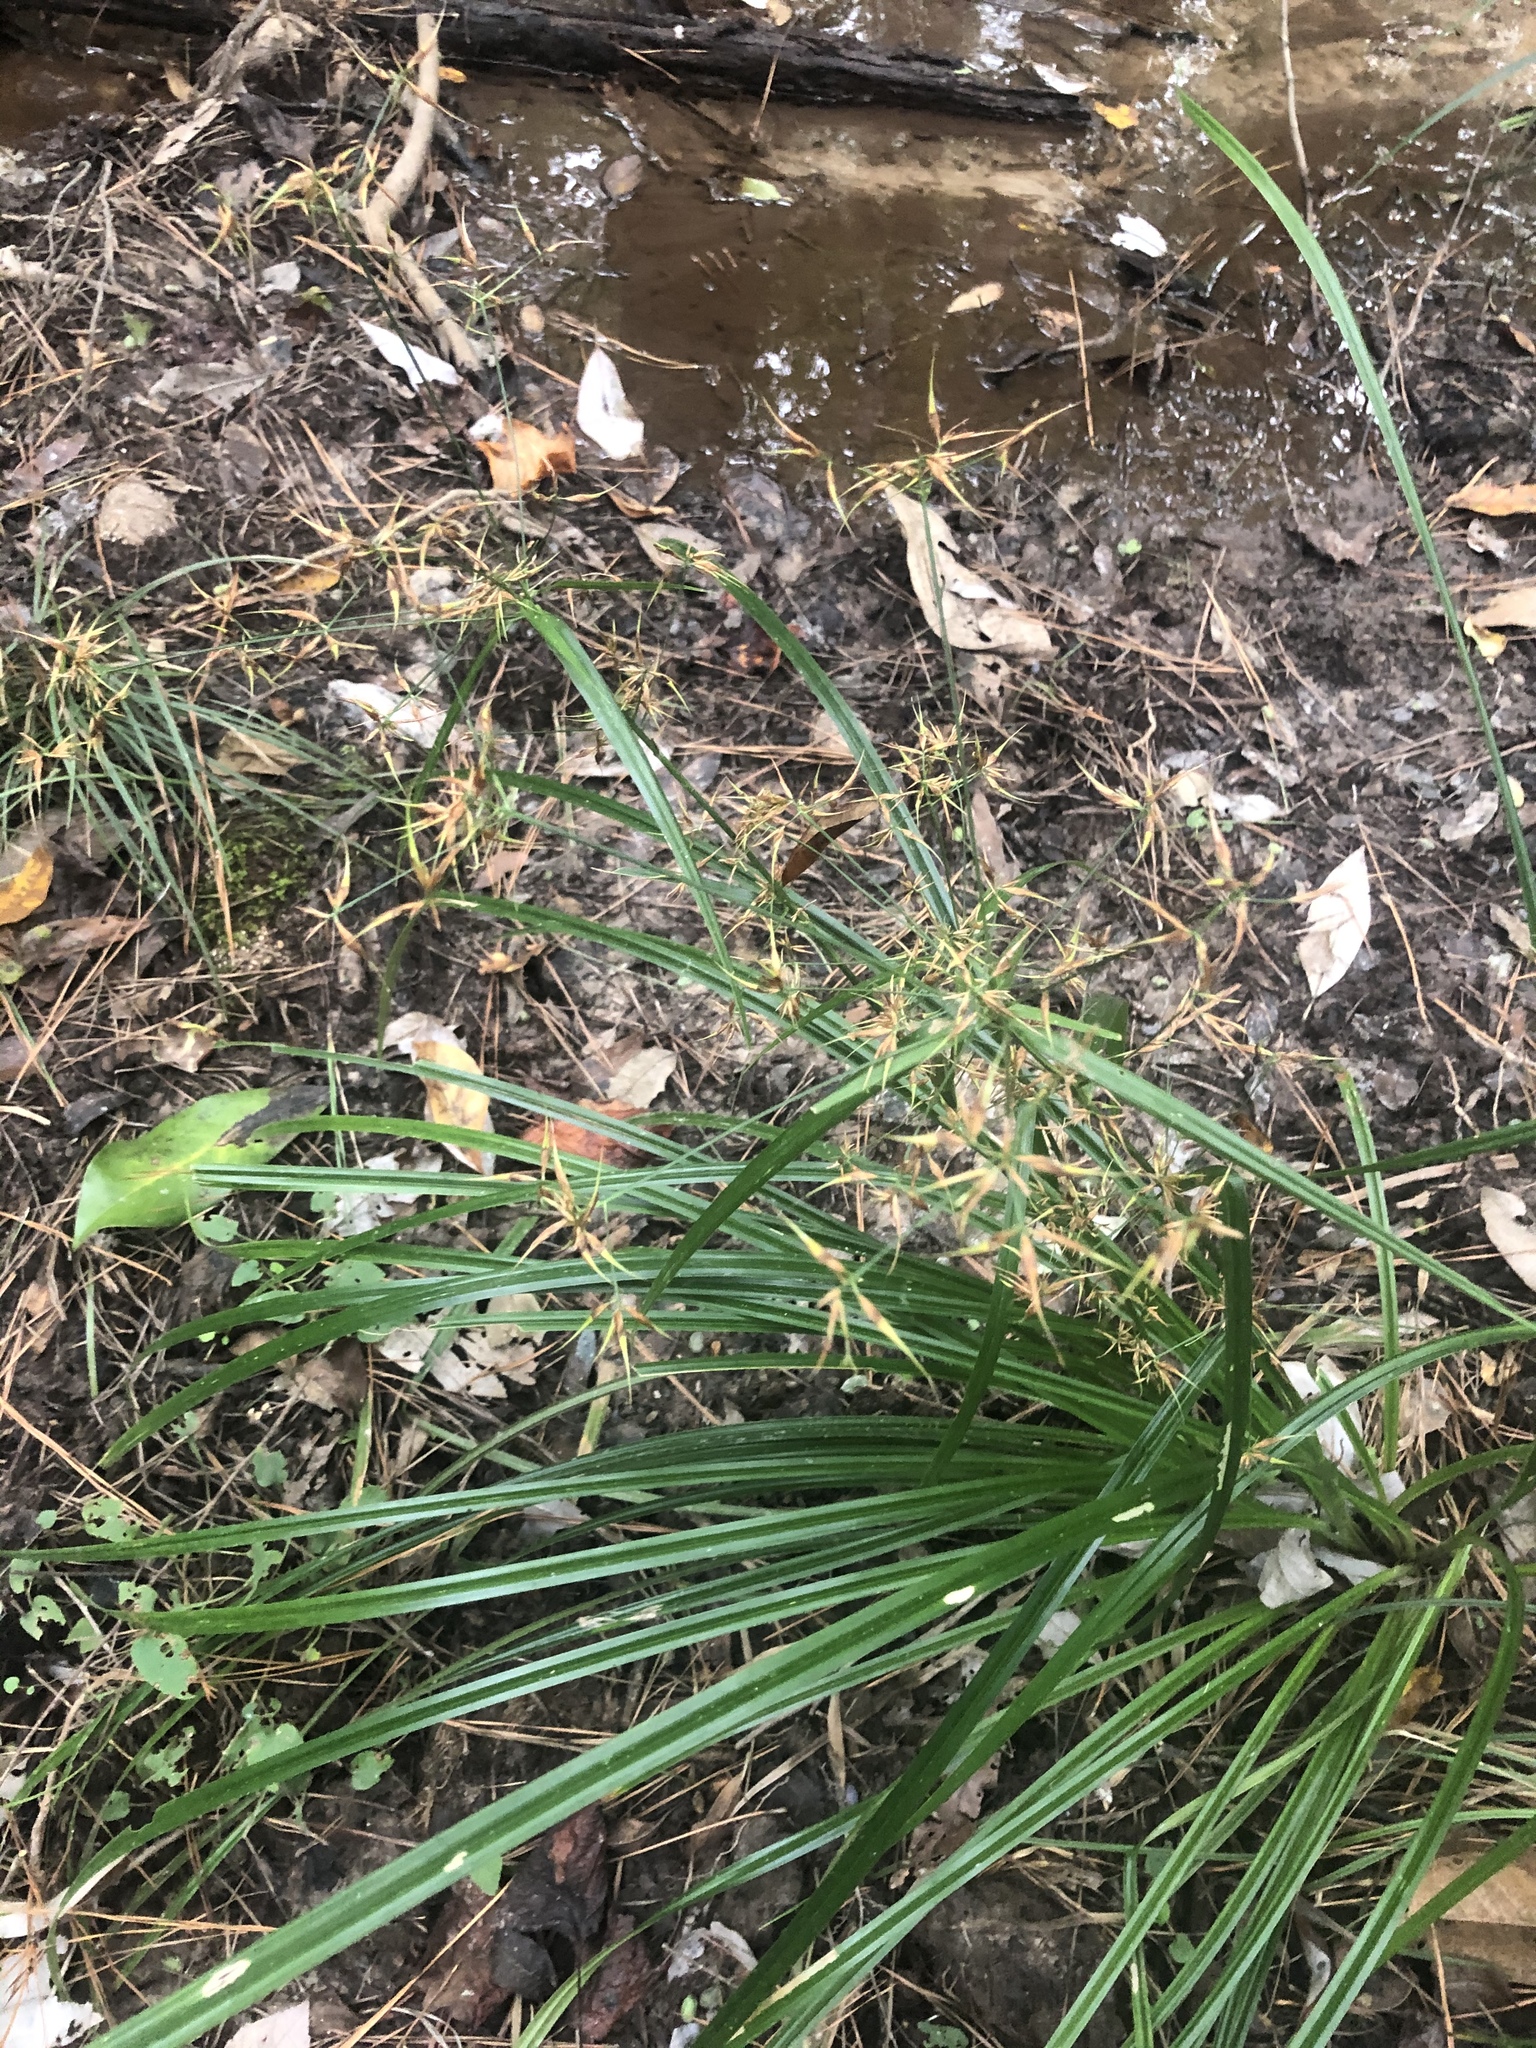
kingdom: Plantae
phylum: Tracheophyta
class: Liliopsida
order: Poales
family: Cyperaceae
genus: Rhynchospora
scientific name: Rhynchospora corniculata
